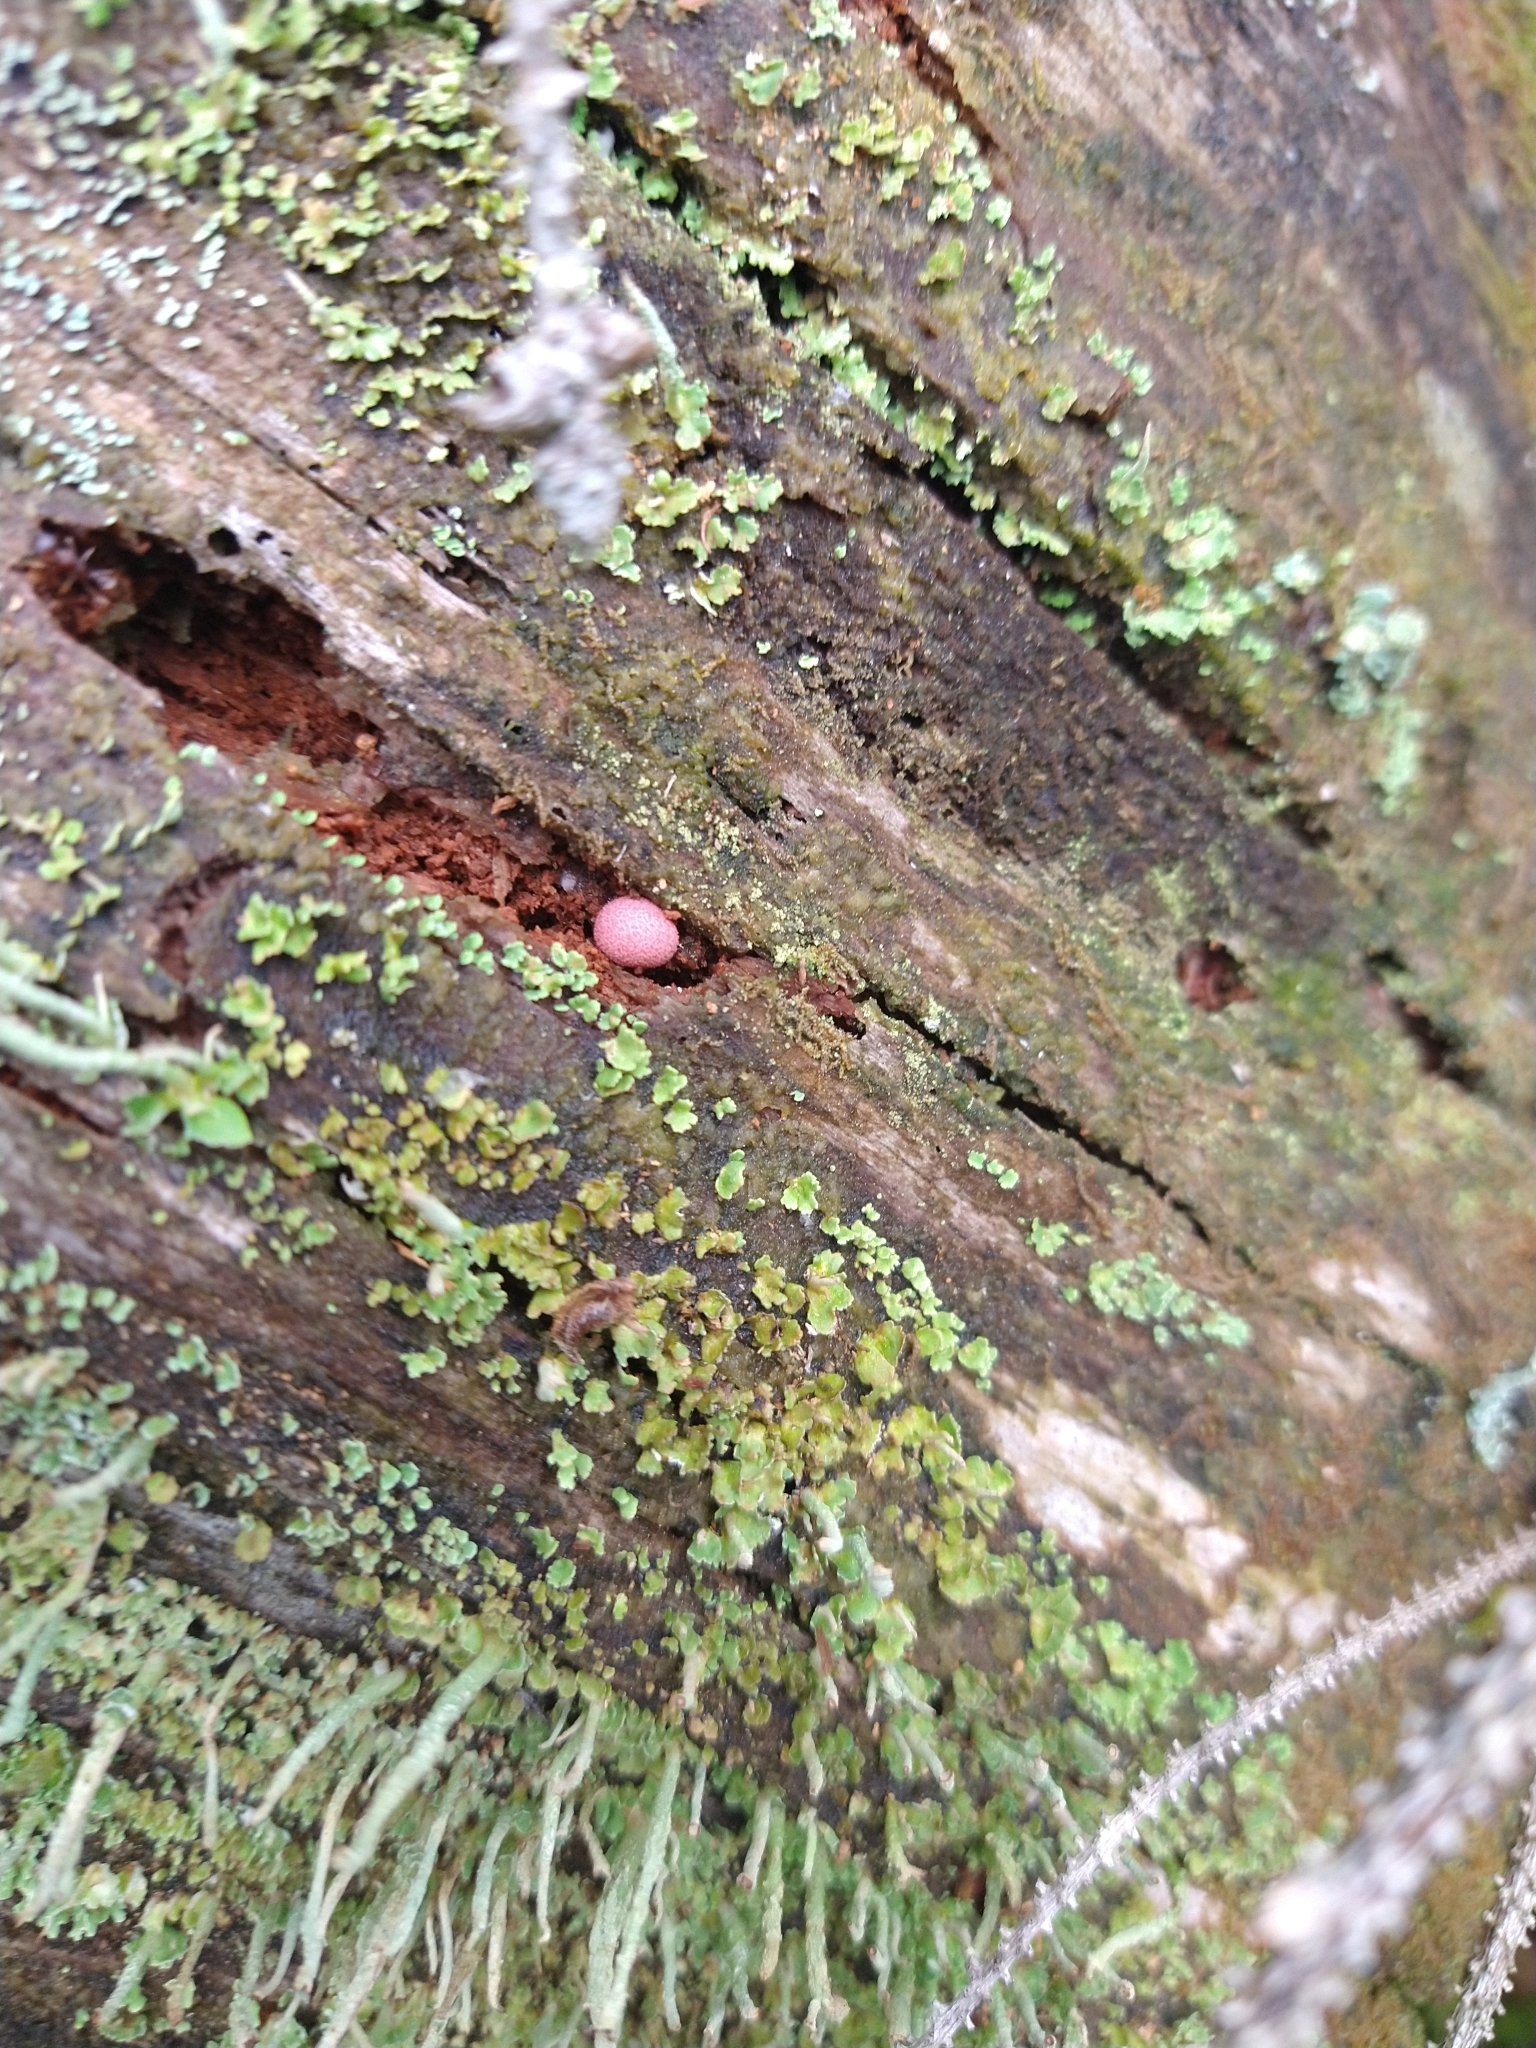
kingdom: Protozoa
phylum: Mycetozoa
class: Myxomycetes
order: Cribrariales
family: Tubiferaceae
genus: Lycogala
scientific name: Lycogala epidendrum
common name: Wolf's milk
